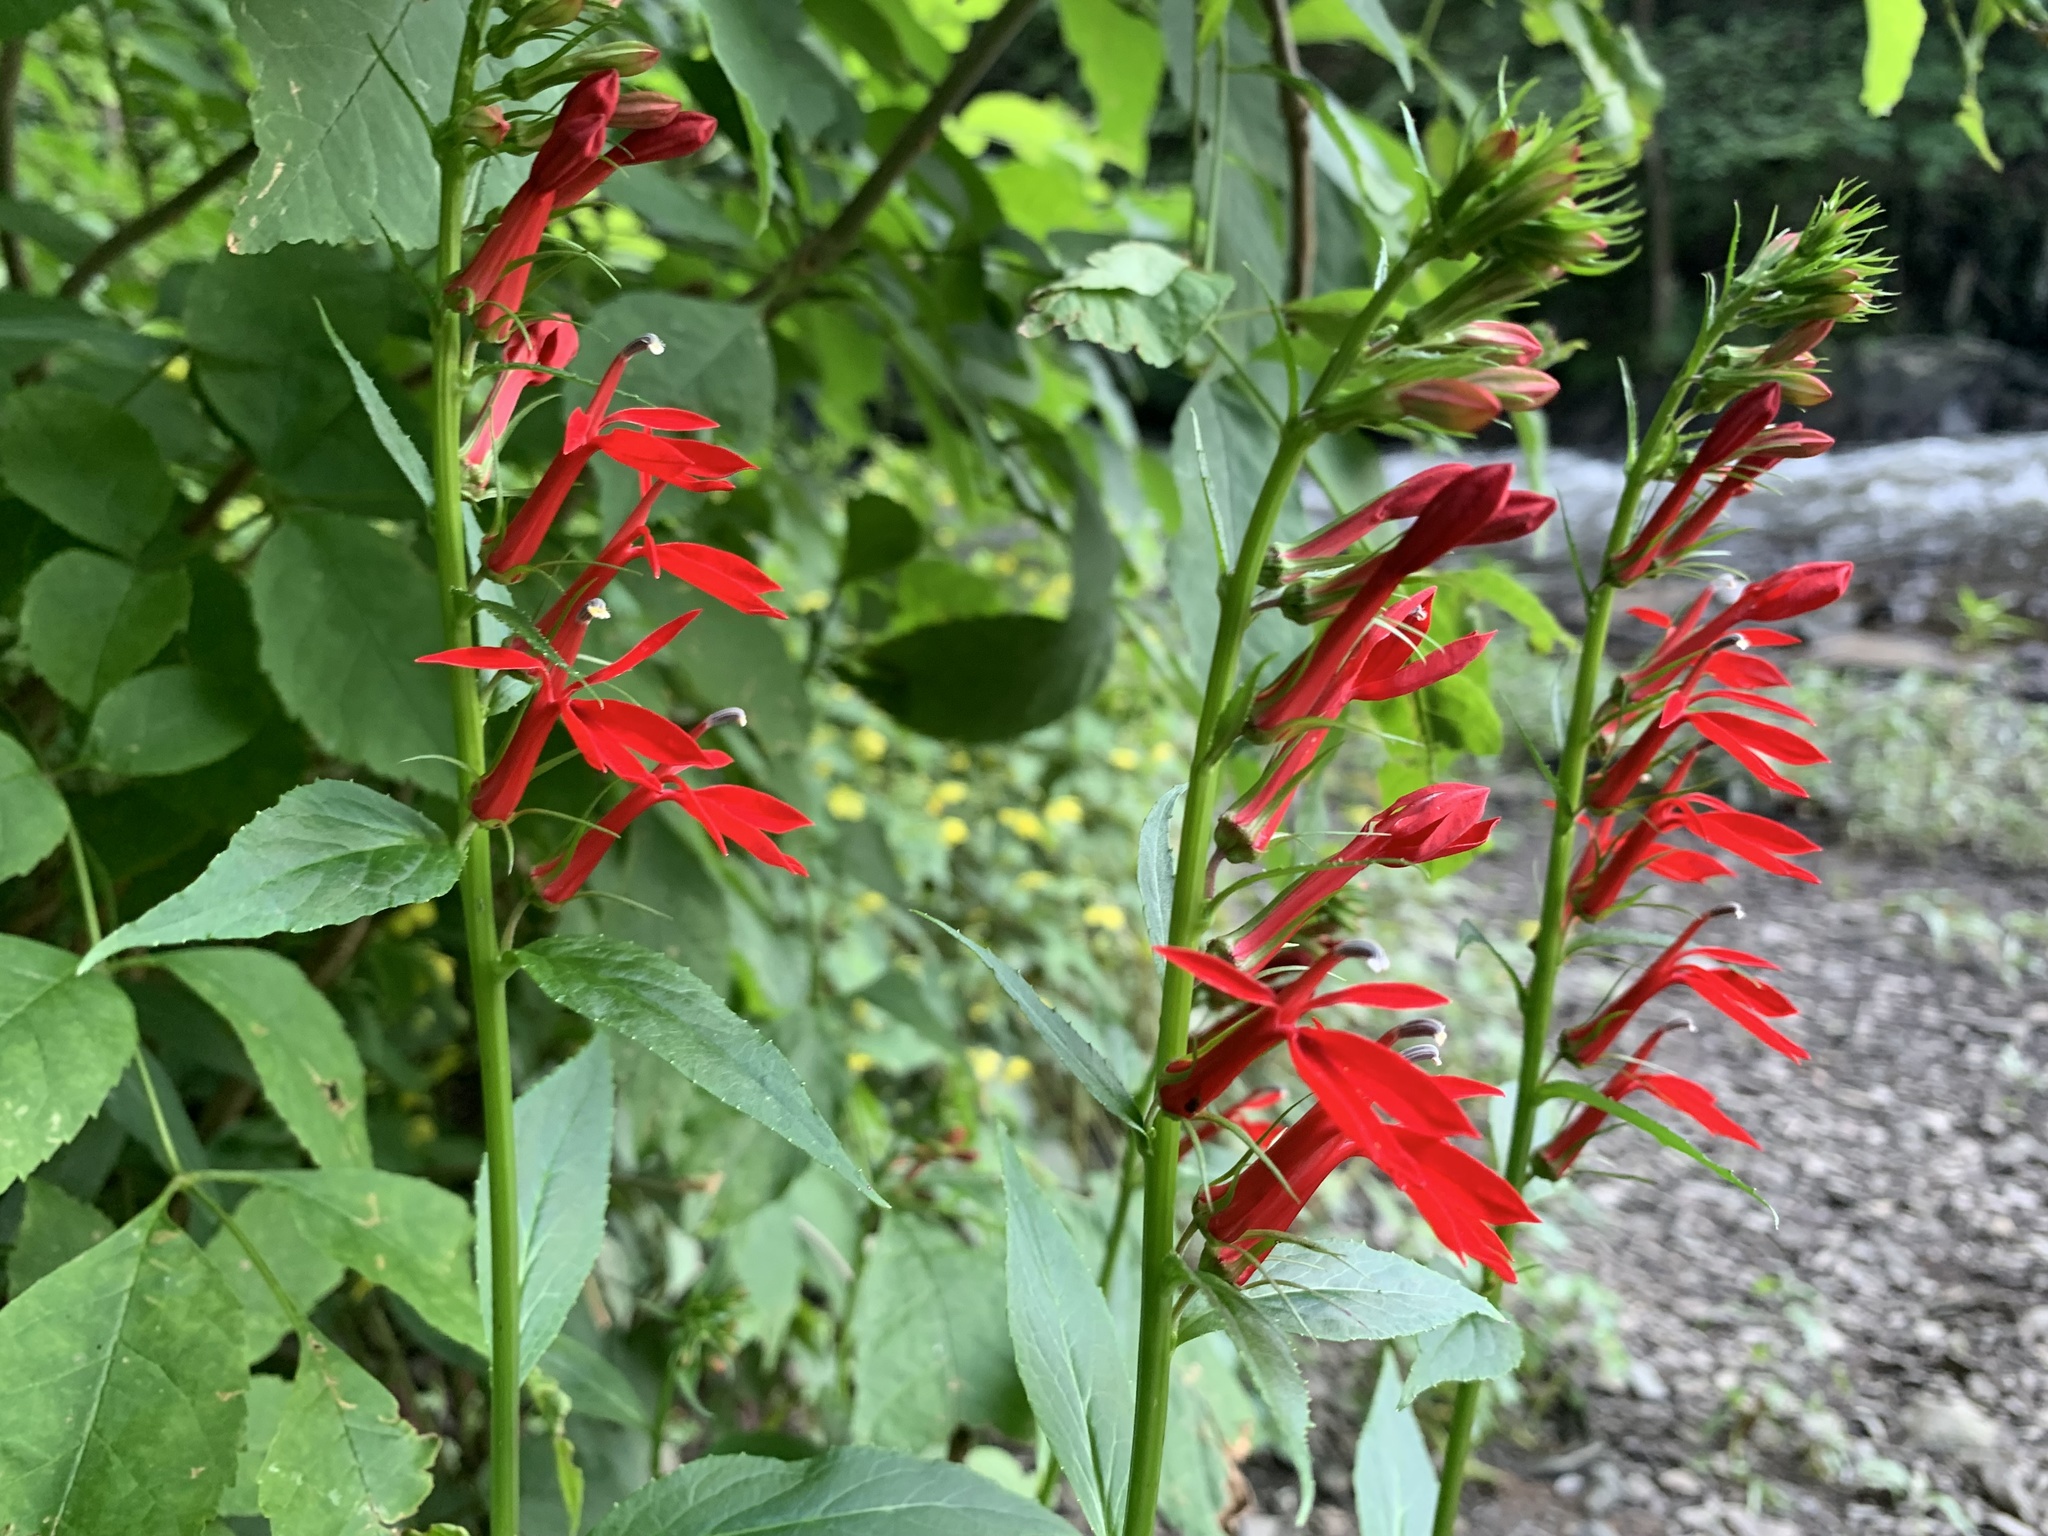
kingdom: Plantae
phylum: Tracheophyta
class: Magnoliopsida
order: Asterales
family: Campanulaceae
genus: Lobelia
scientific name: Lobelia cardinalis
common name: Cardinal flower
